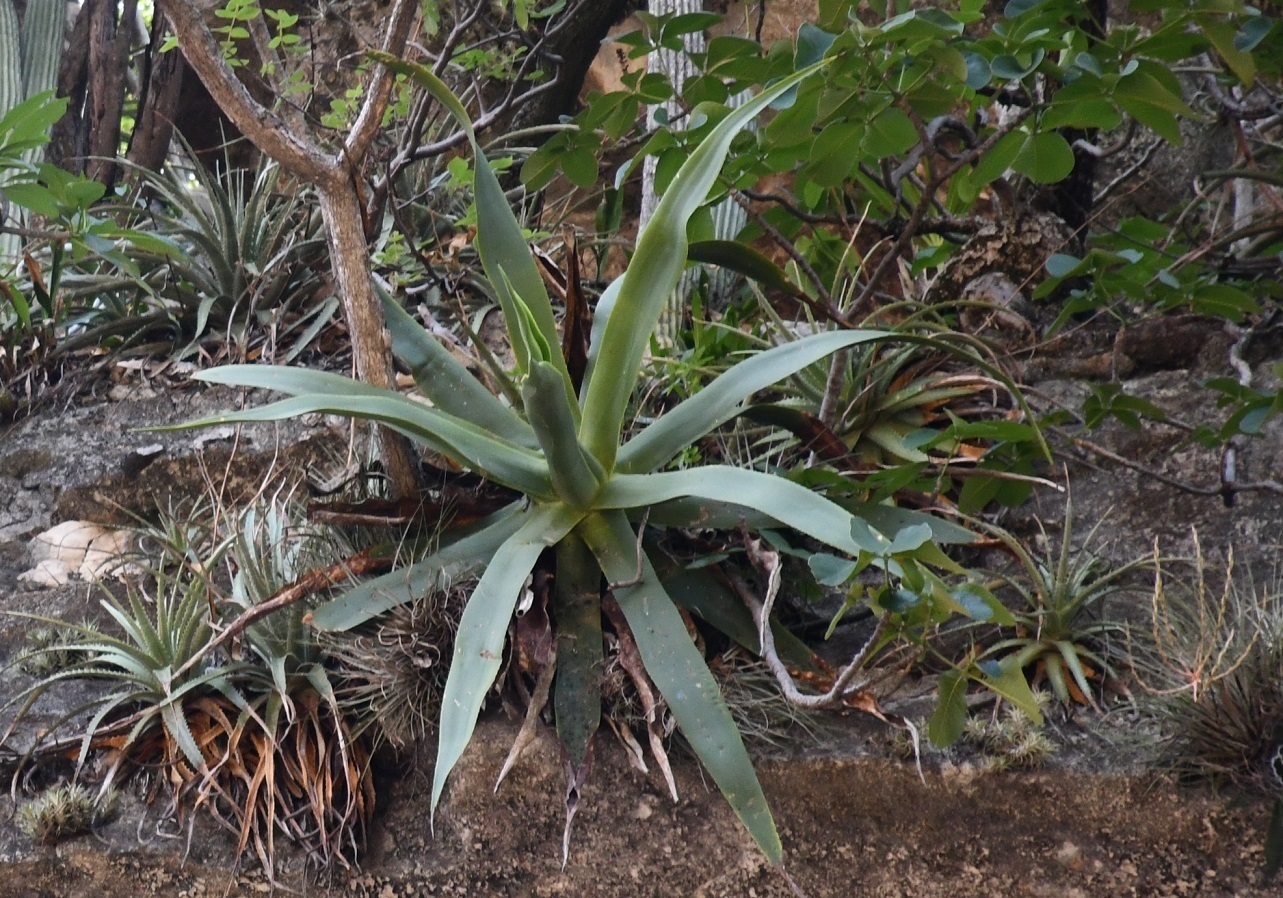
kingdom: Plantae
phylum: Tracheophyta
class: Liliopsida
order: Asparagales
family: Asparagaceae
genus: Agave
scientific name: Agave kewensis
